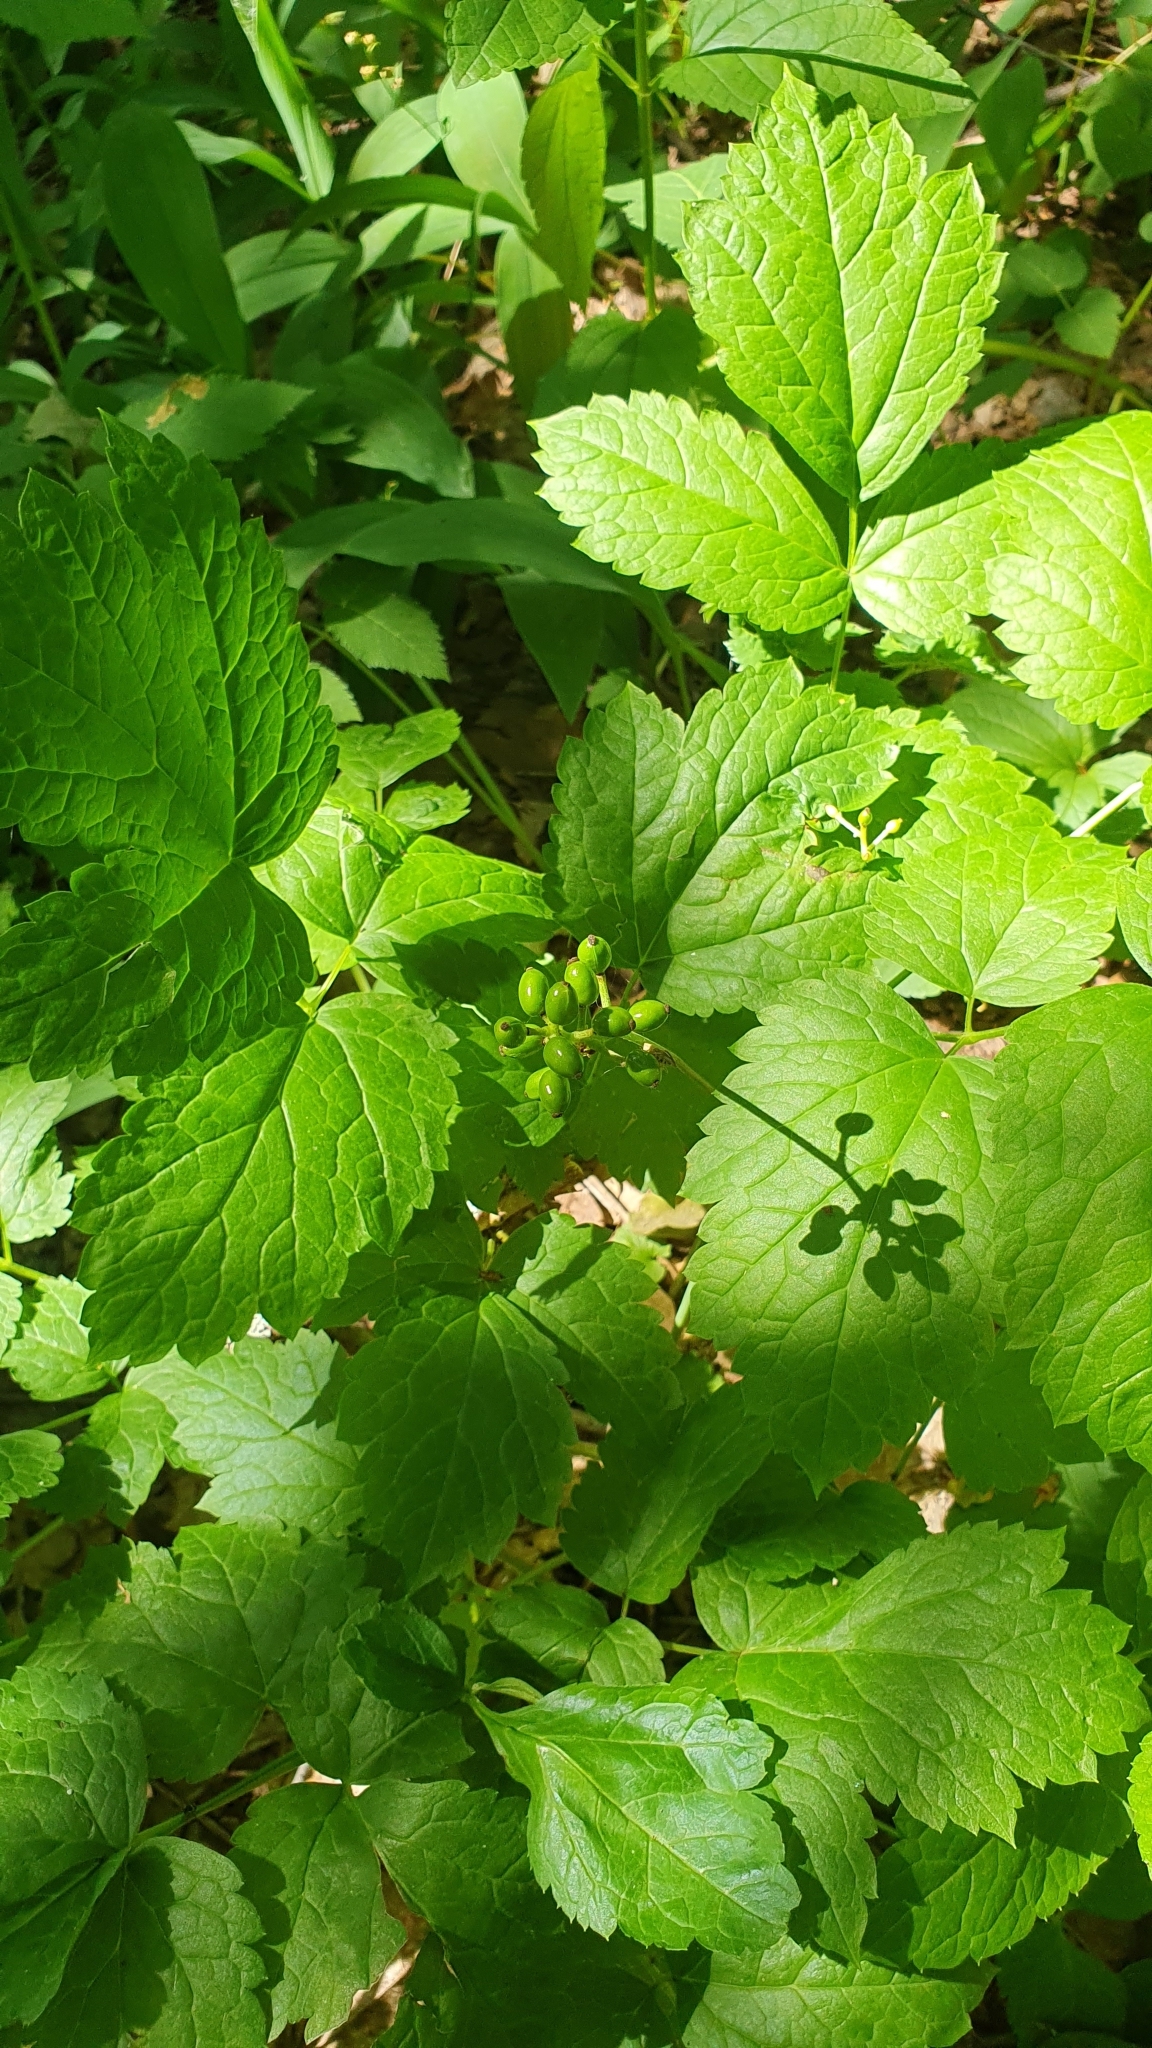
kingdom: Plantae
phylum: Tracheophyta
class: Magnoliopsida
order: Ranunculales
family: Ranunculaceae
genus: Actaea
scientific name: Actaea spicata
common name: Baneberry
